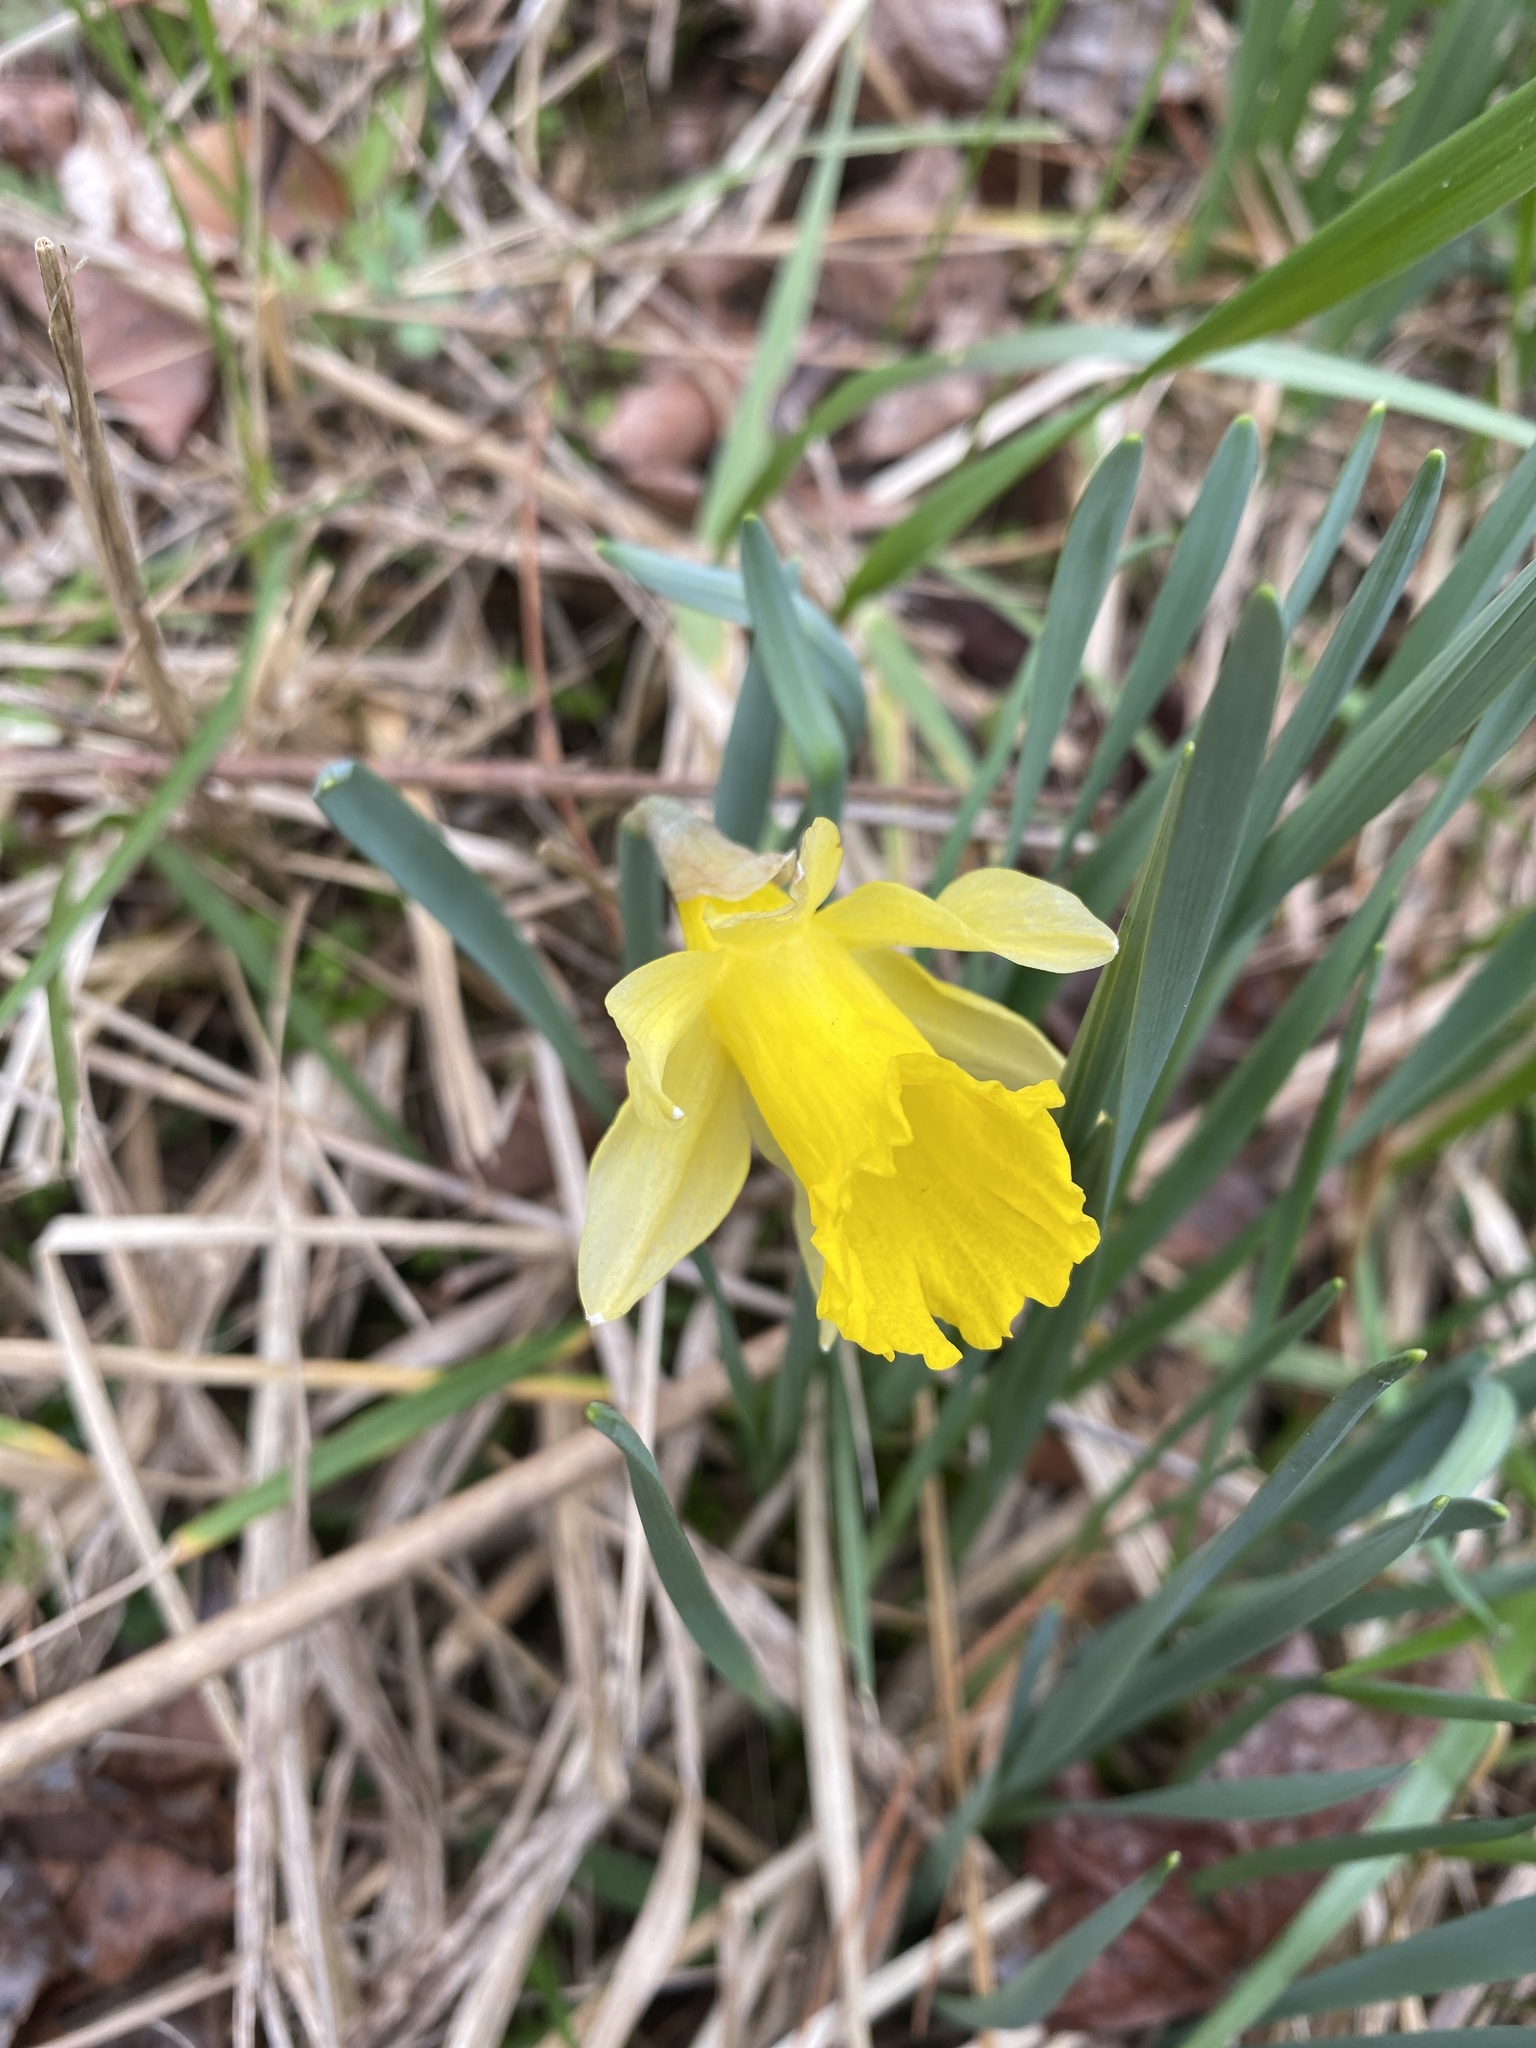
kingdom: Plantae
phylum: Tracheophyta
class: Liliopsida
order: Asparagales
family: Amaryllidaceae
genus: Narcissus
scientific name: Narcissus pseudonarcissus
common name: Daffodil
